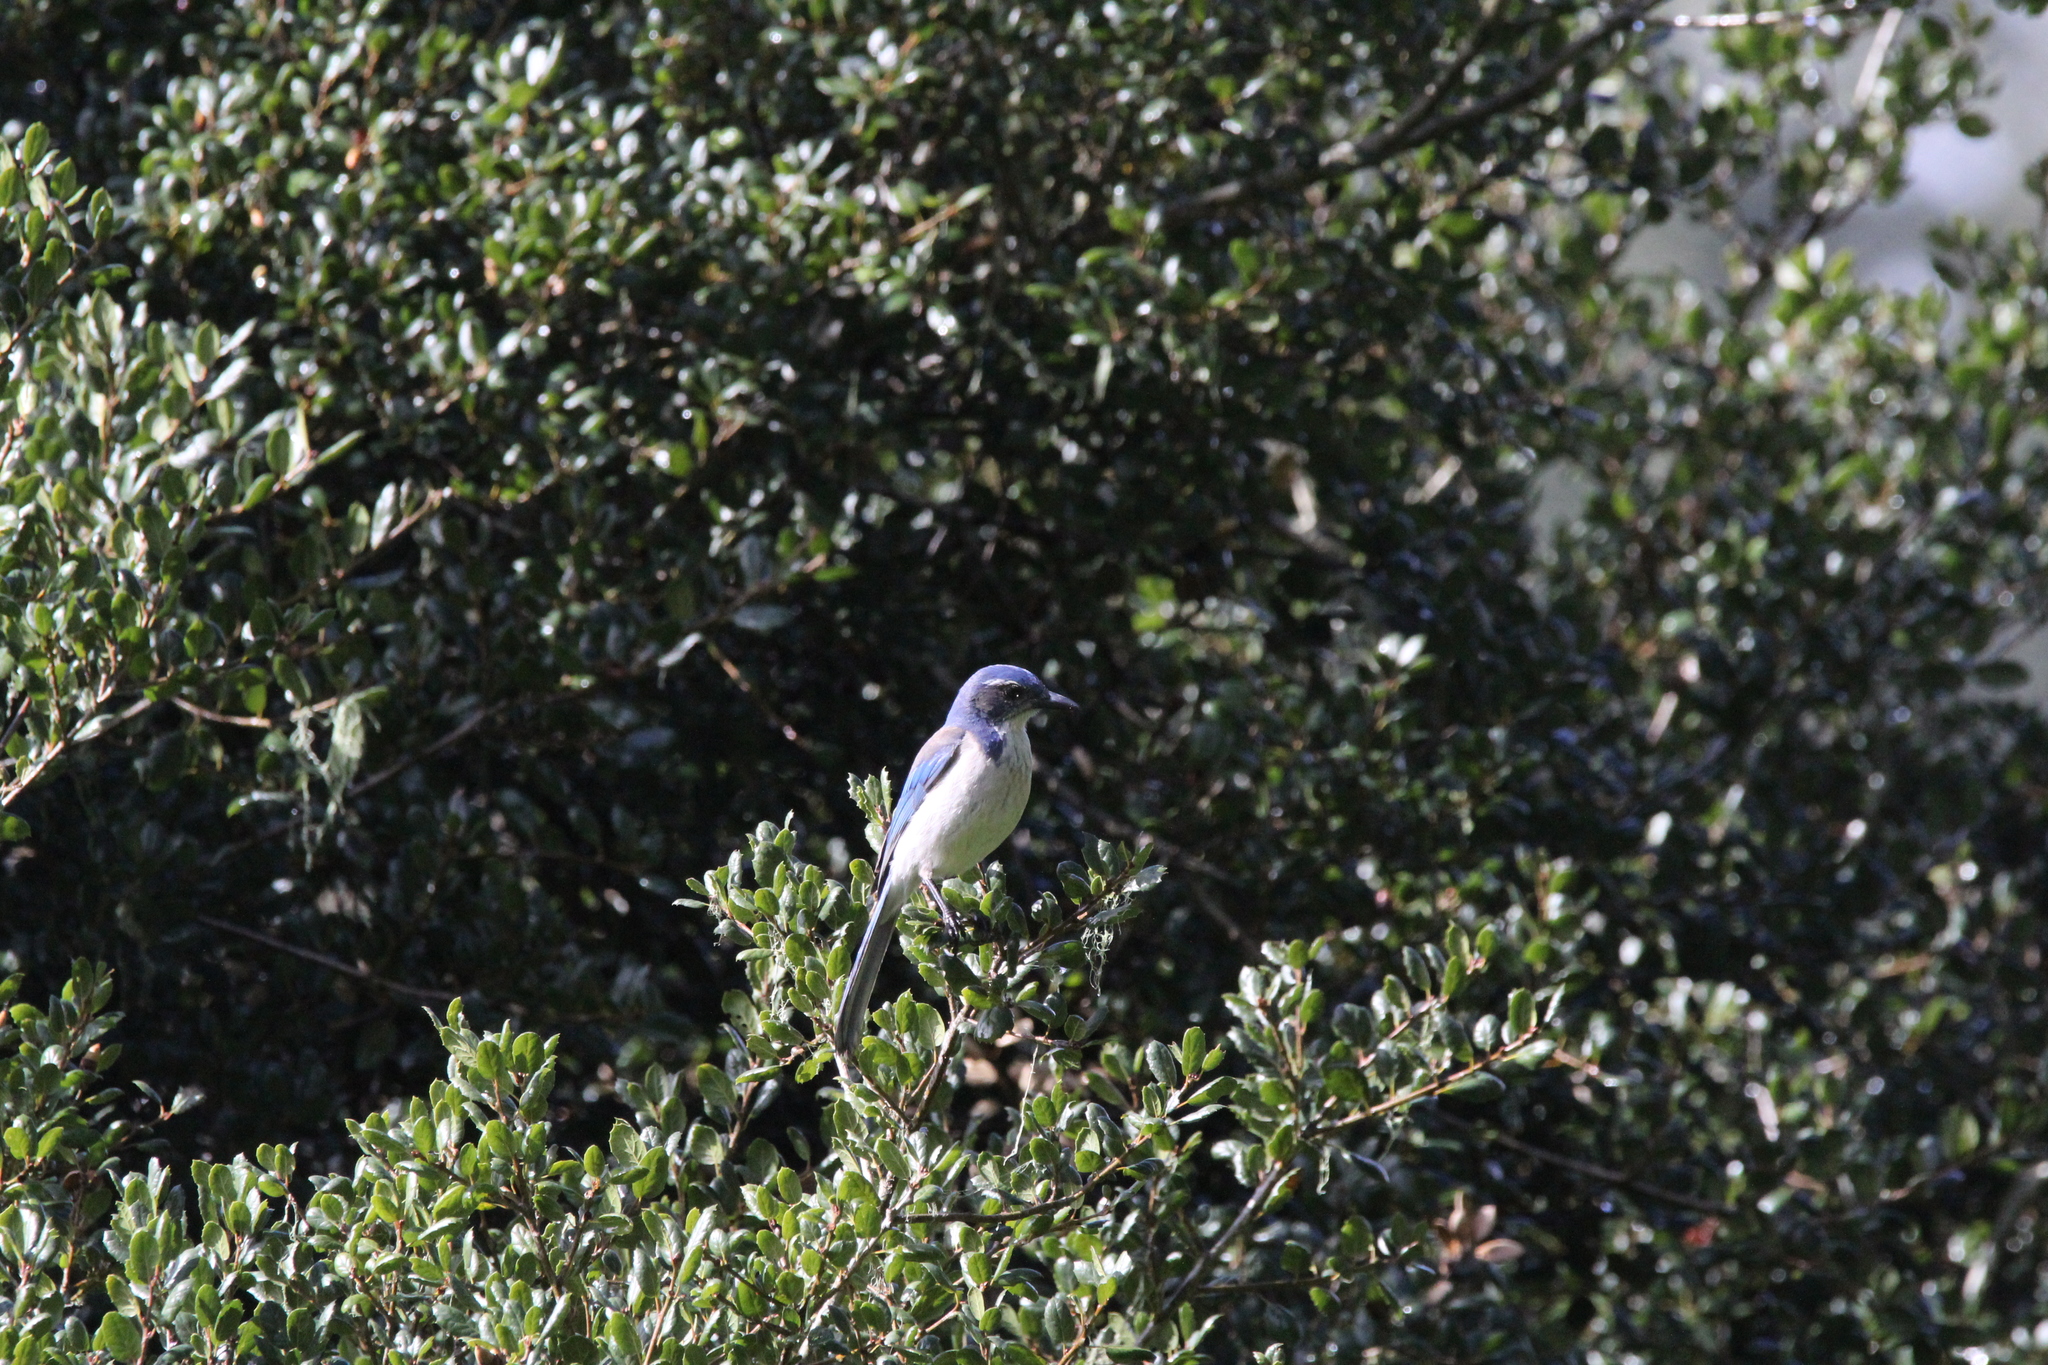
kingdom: Animalia
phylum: Chordata
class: Aves
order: Passeriformes
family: Corvidae
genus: Aphelocoma
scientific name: Aphelocoma californica
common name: California scrub-jay
